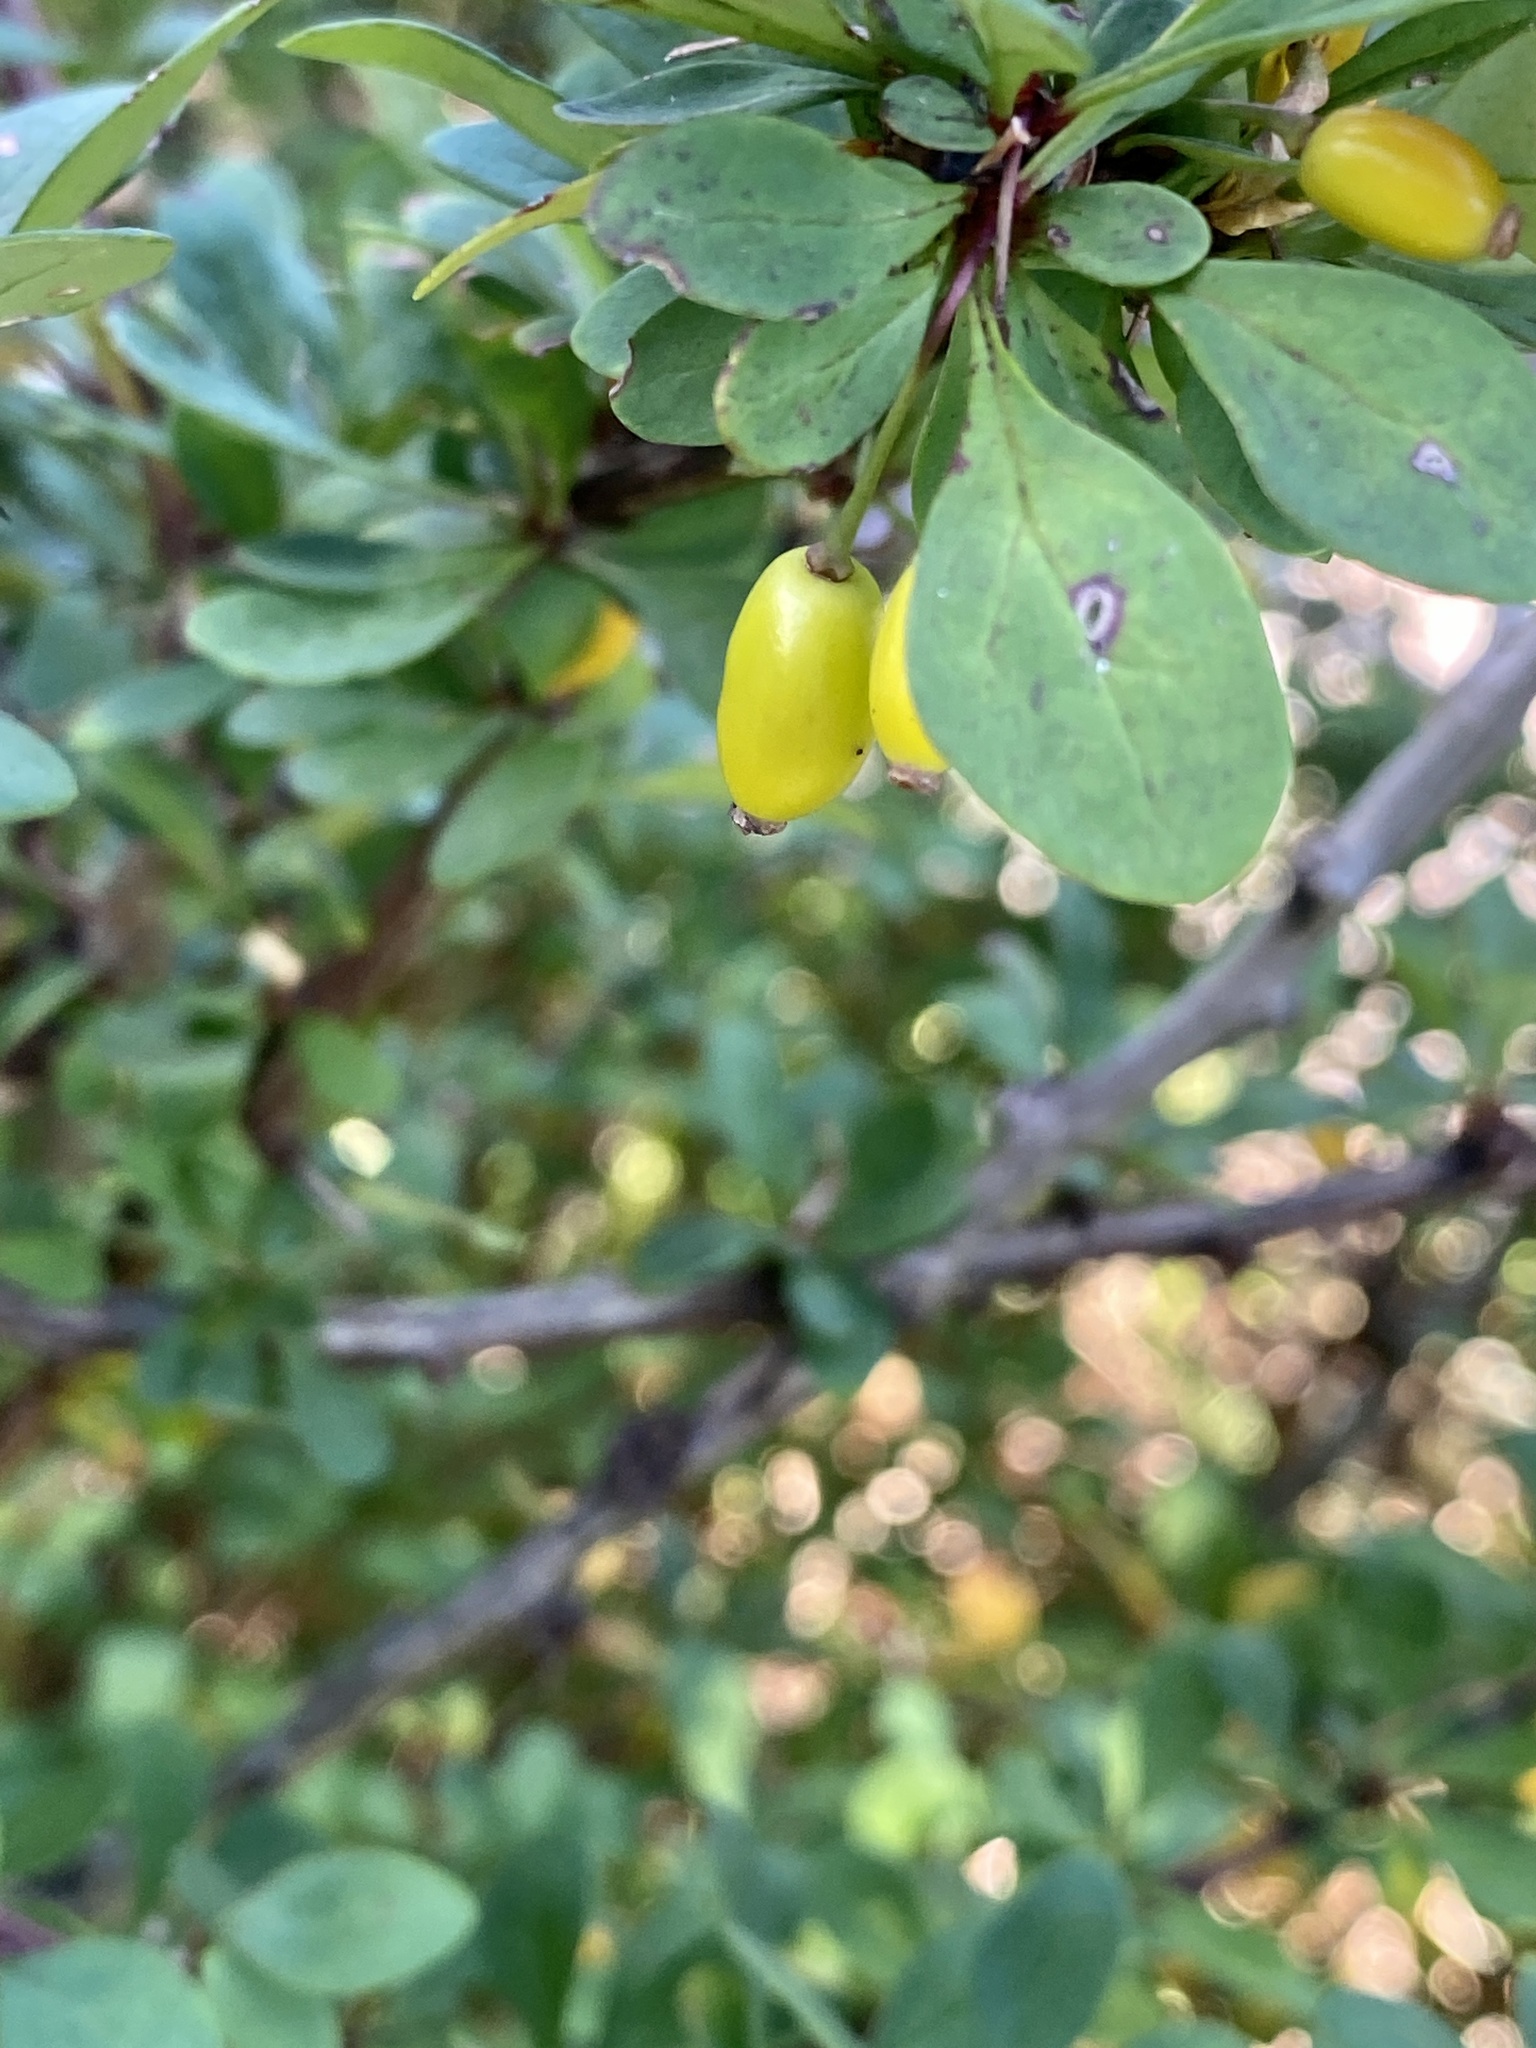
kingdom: Plantae
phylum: Tracheophyta
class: Magnoliopsida
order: Ranunculales
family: Berberidaceae
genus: Berberis
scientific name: Berberis thunbergii
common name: Japanese barberry
